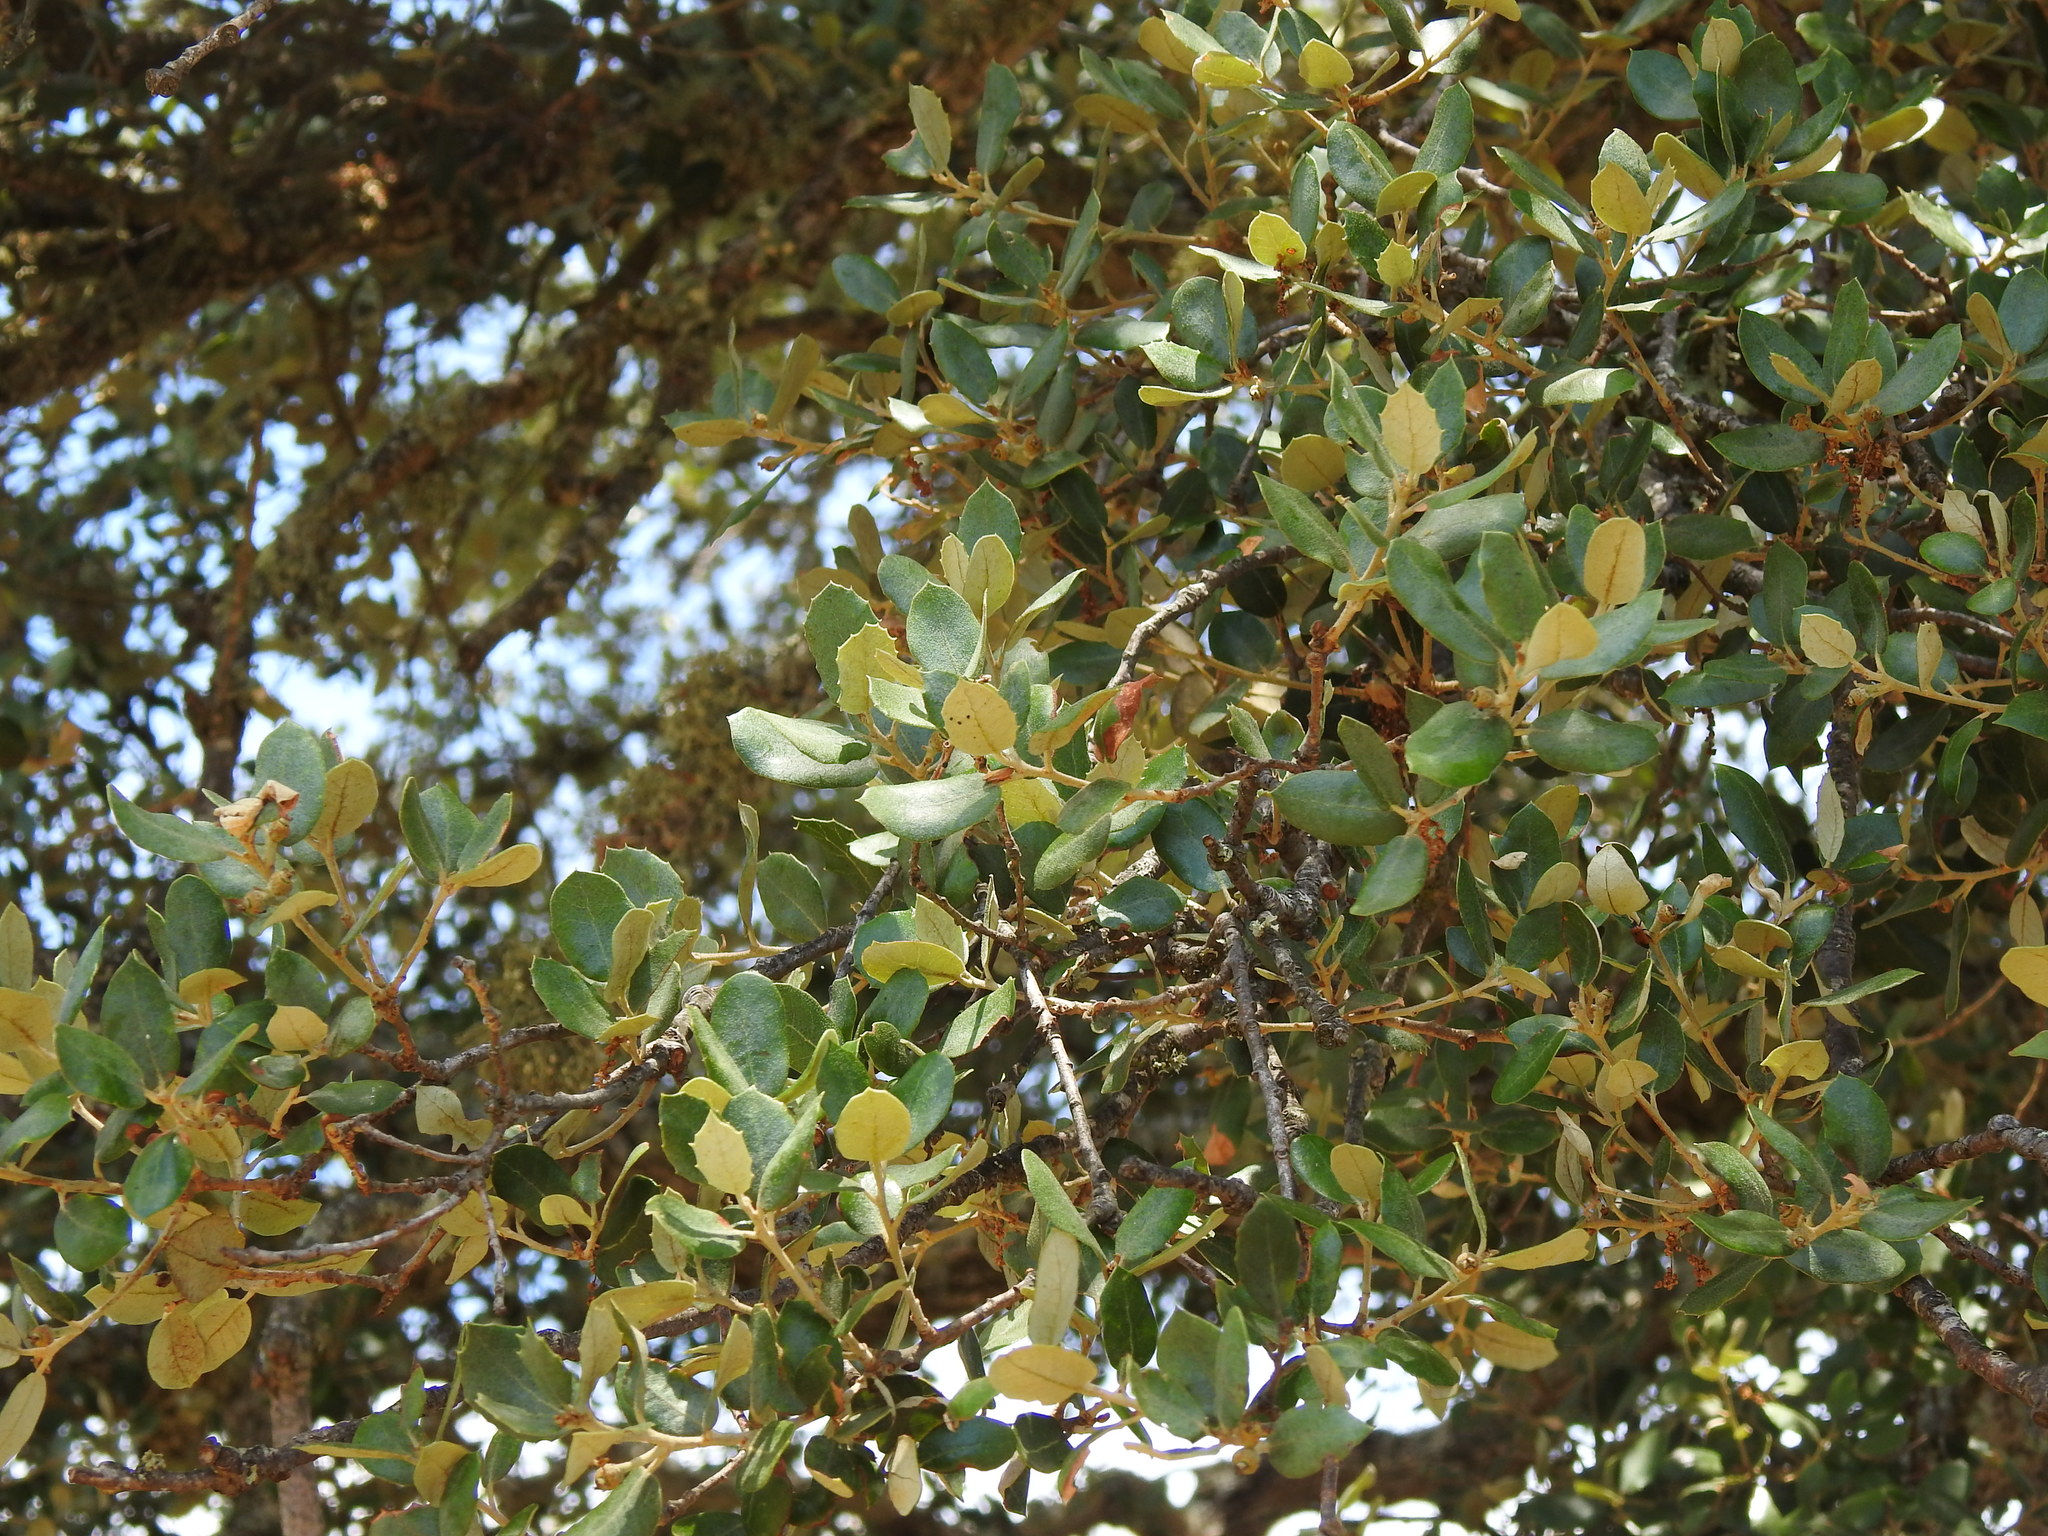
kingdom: Plantae
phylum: Tracheophyta
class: Magnoliopsida
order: Fagales
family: Fagaceae
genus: Quercus
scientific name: Quercus rotundifolia
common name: Holm oak
